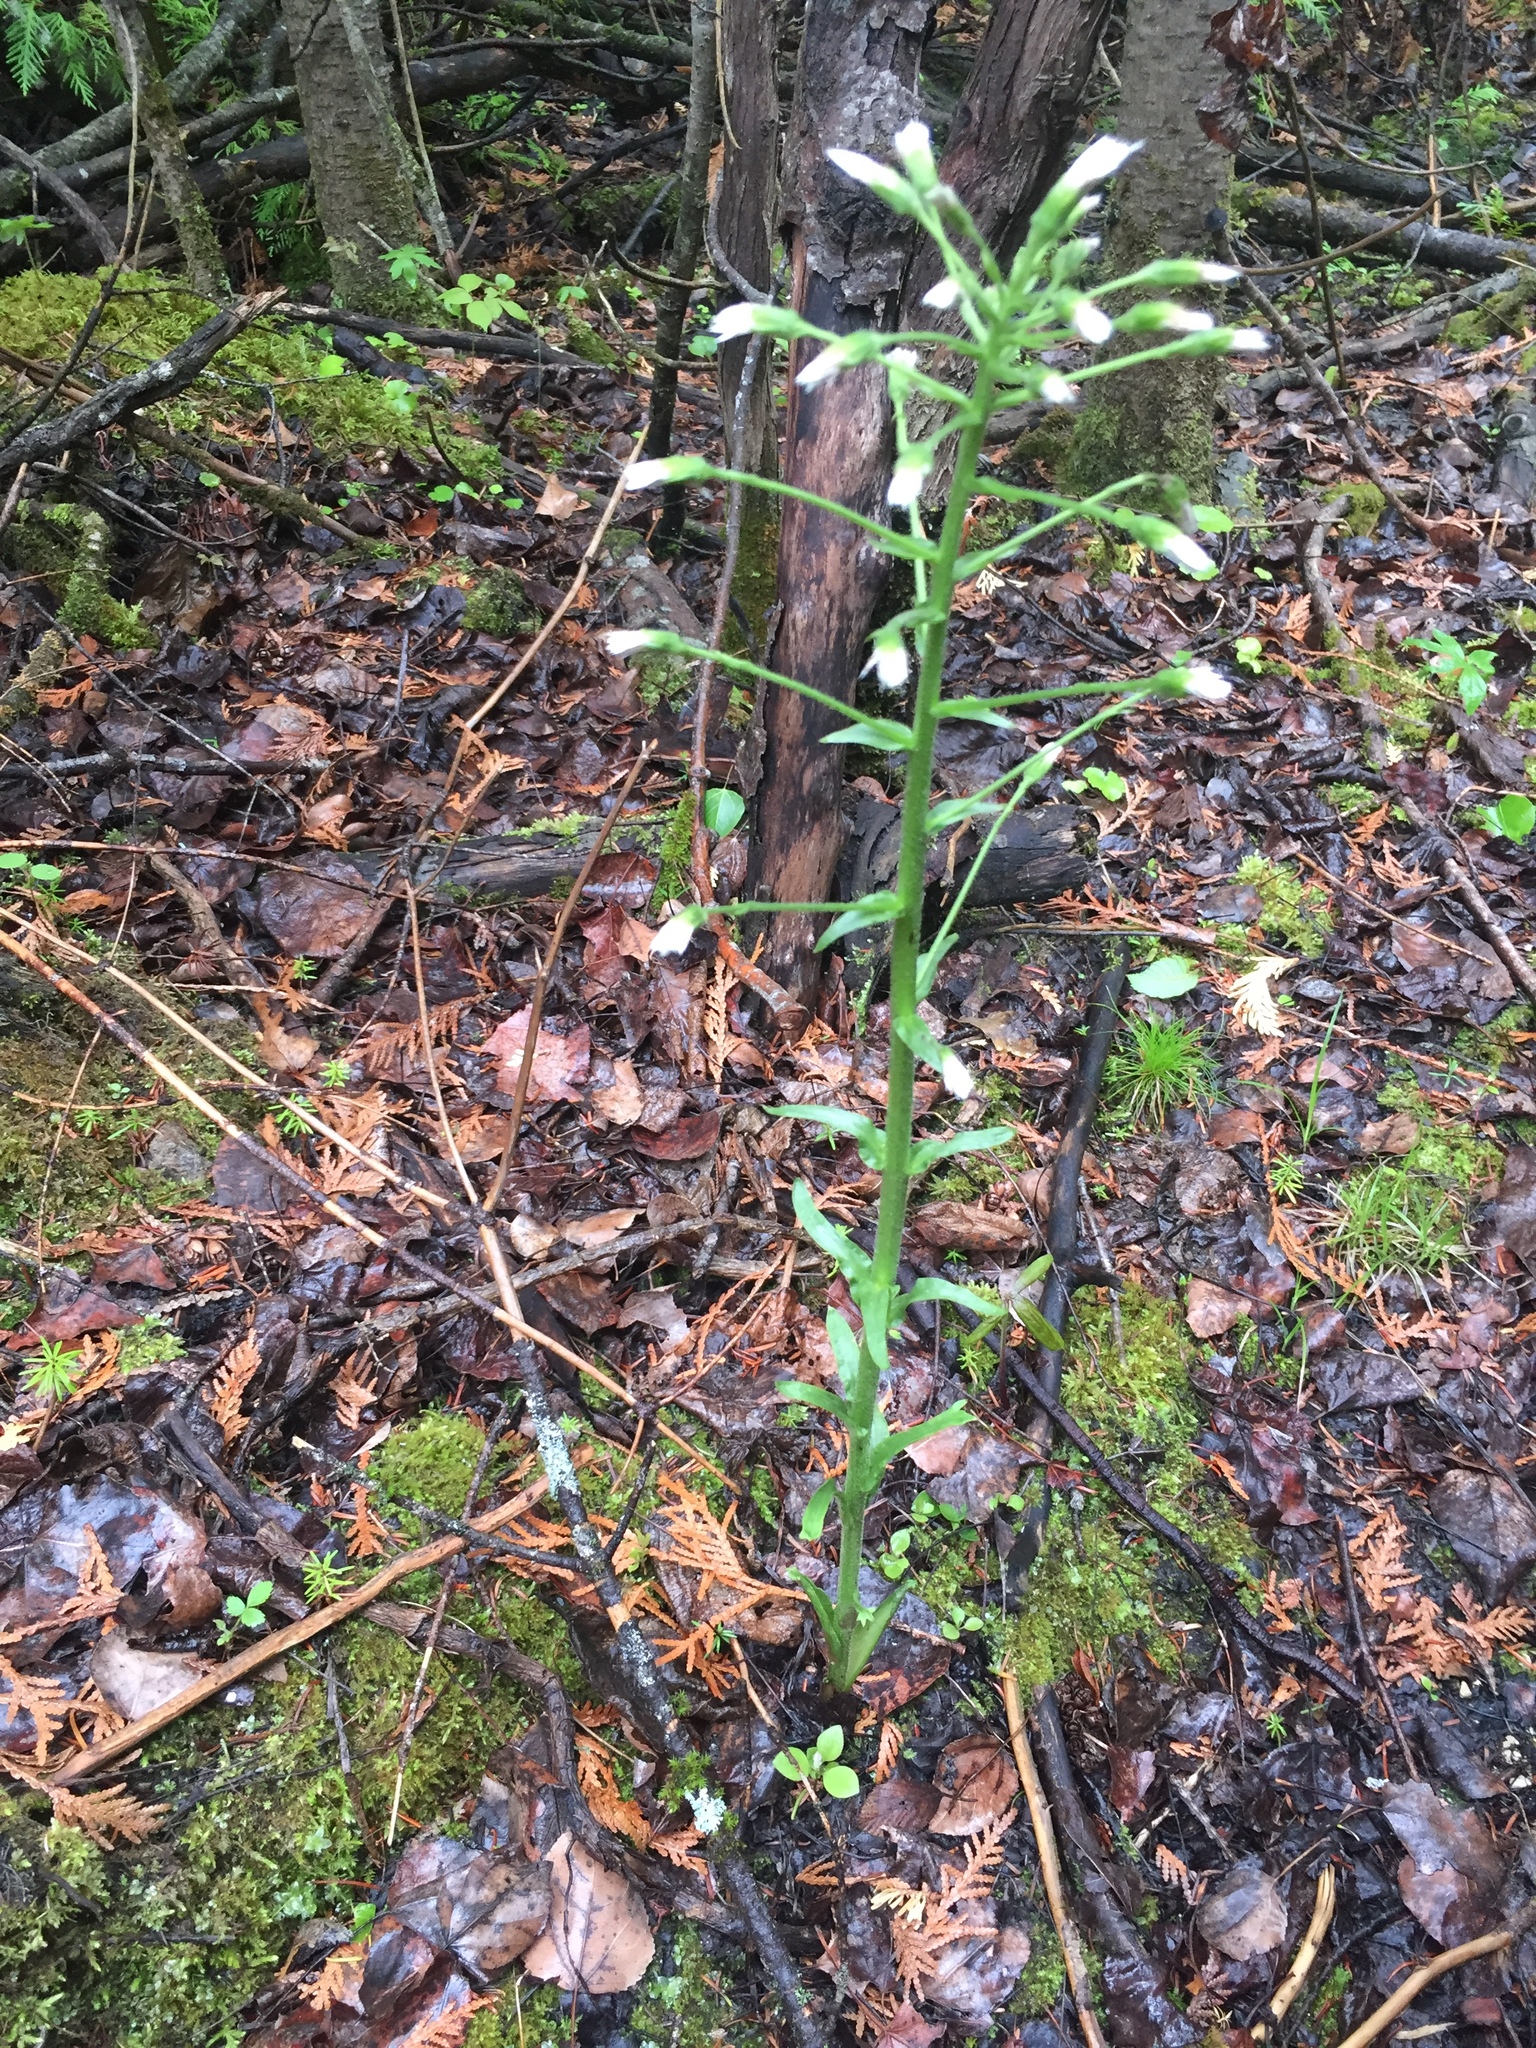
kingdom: Plantae
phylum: Tracheophyta
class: Magnoliopsida
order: Asterales
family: Asteraceae
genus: Petasites
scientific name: Petasites frigidus
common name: Arctic butterbur
